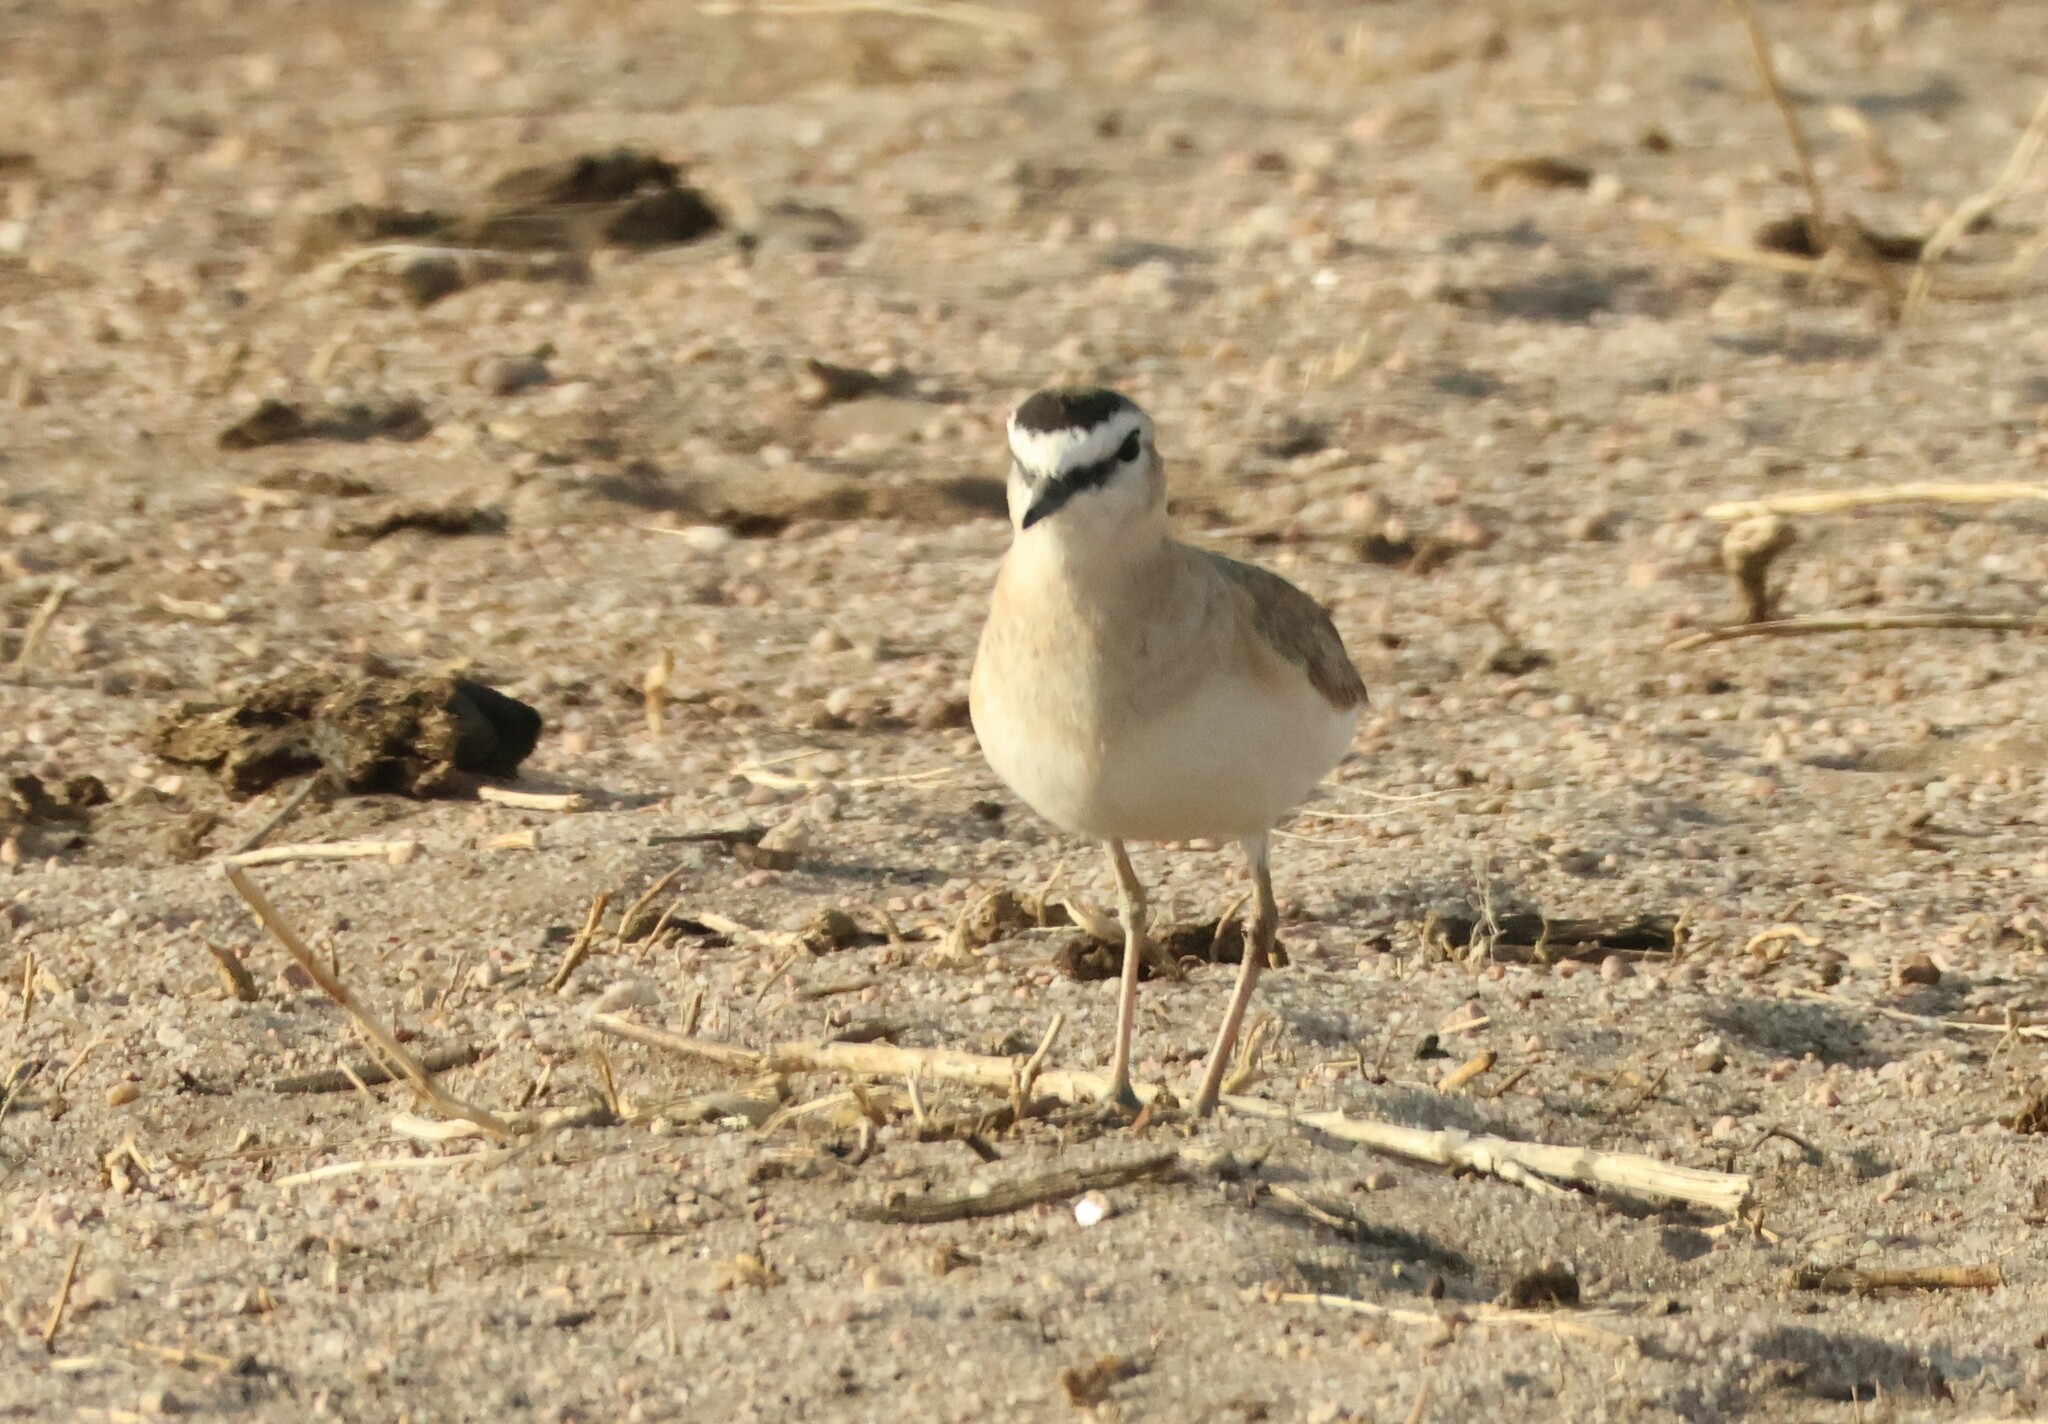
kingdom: Animalia
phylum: Chordata
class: Aves
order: Charadriiformes
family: Charadriidae
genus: Anarhynchus
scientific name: Anarhynchus
